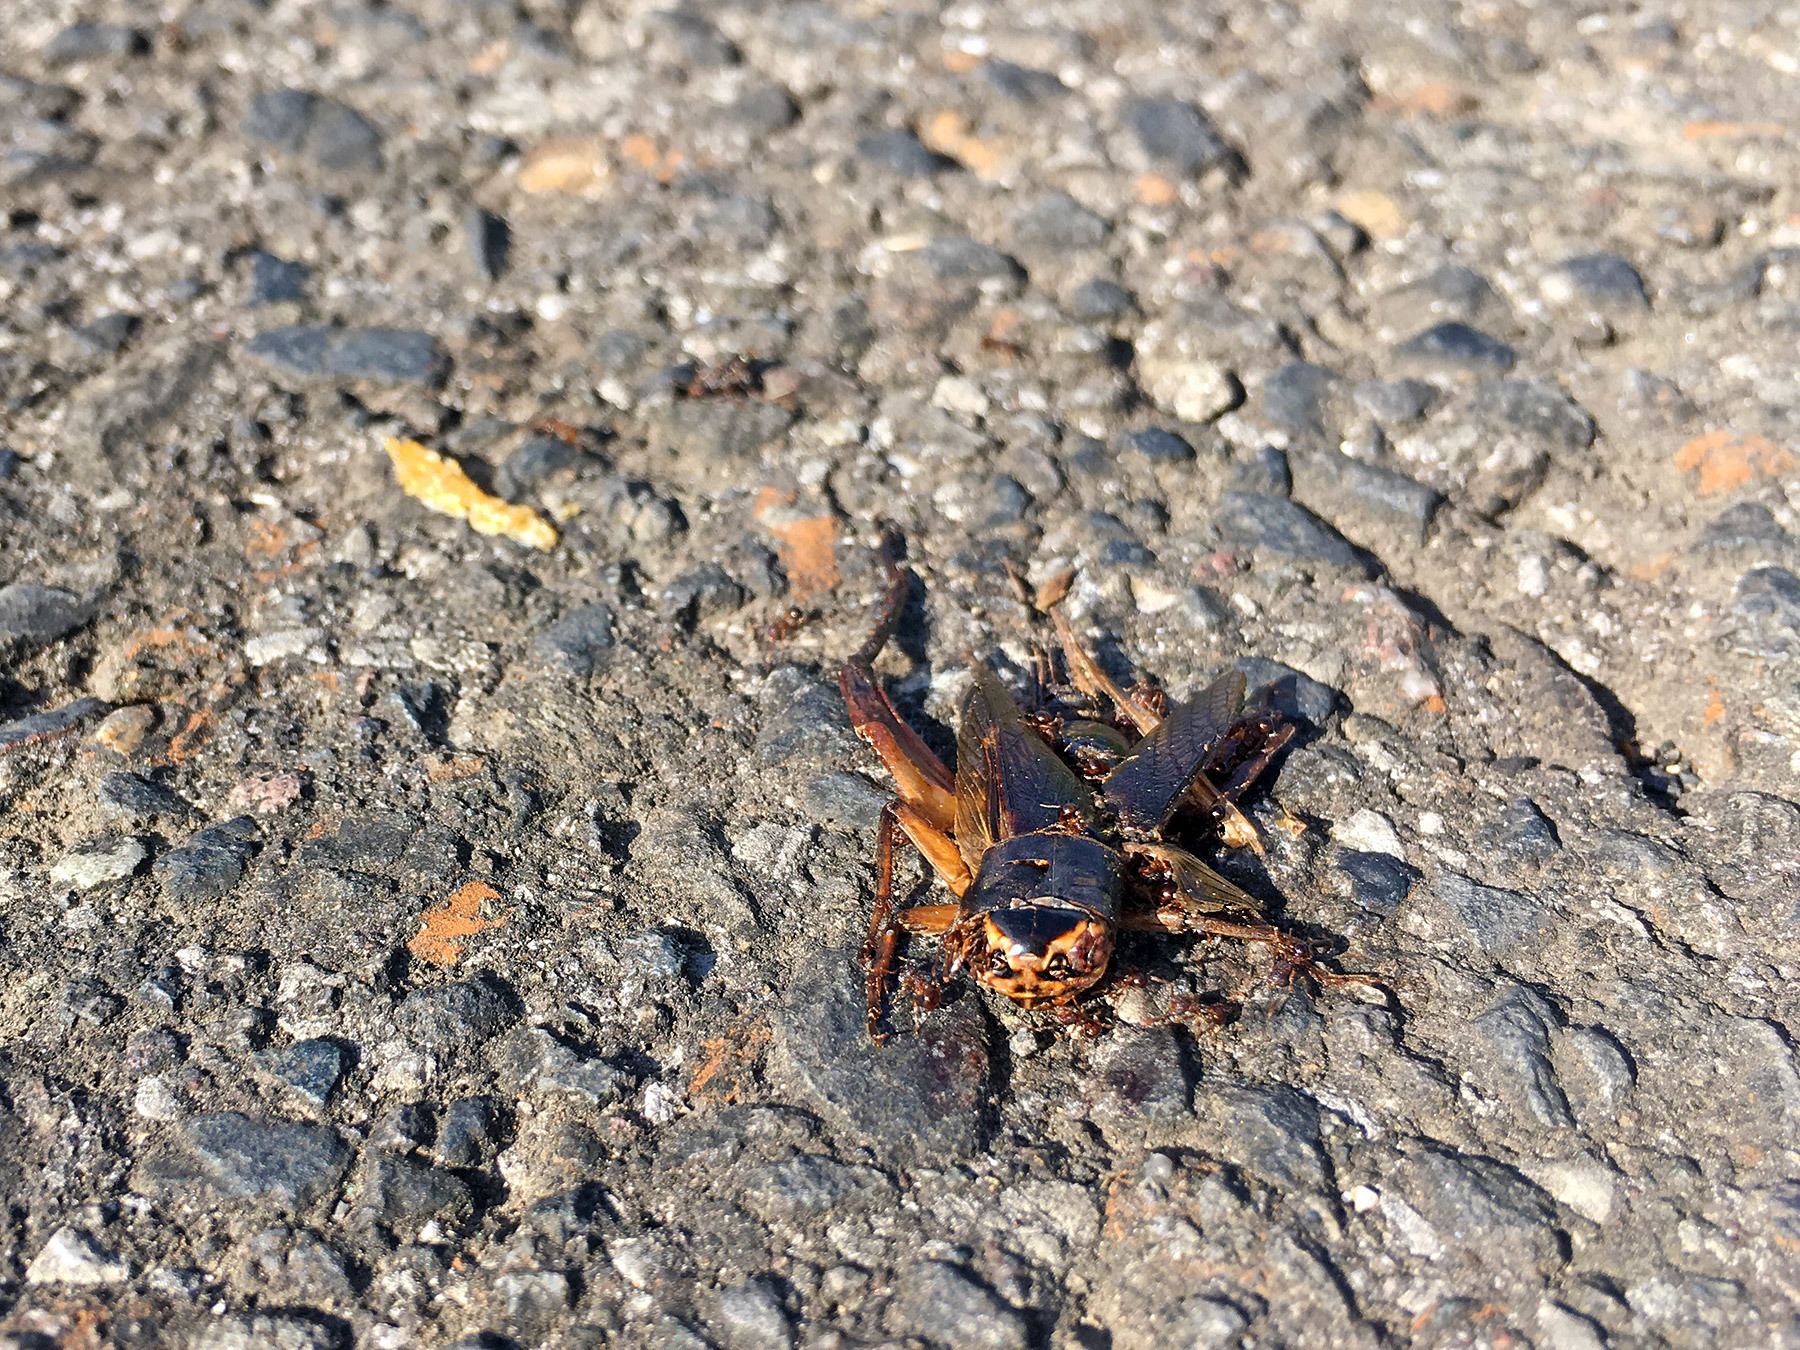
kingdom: Animalia
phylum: Arthropoda
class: Insecta
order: Orthoptera
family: Gryllidae
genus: Teleogryllus
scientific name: Teleogryllus emma
